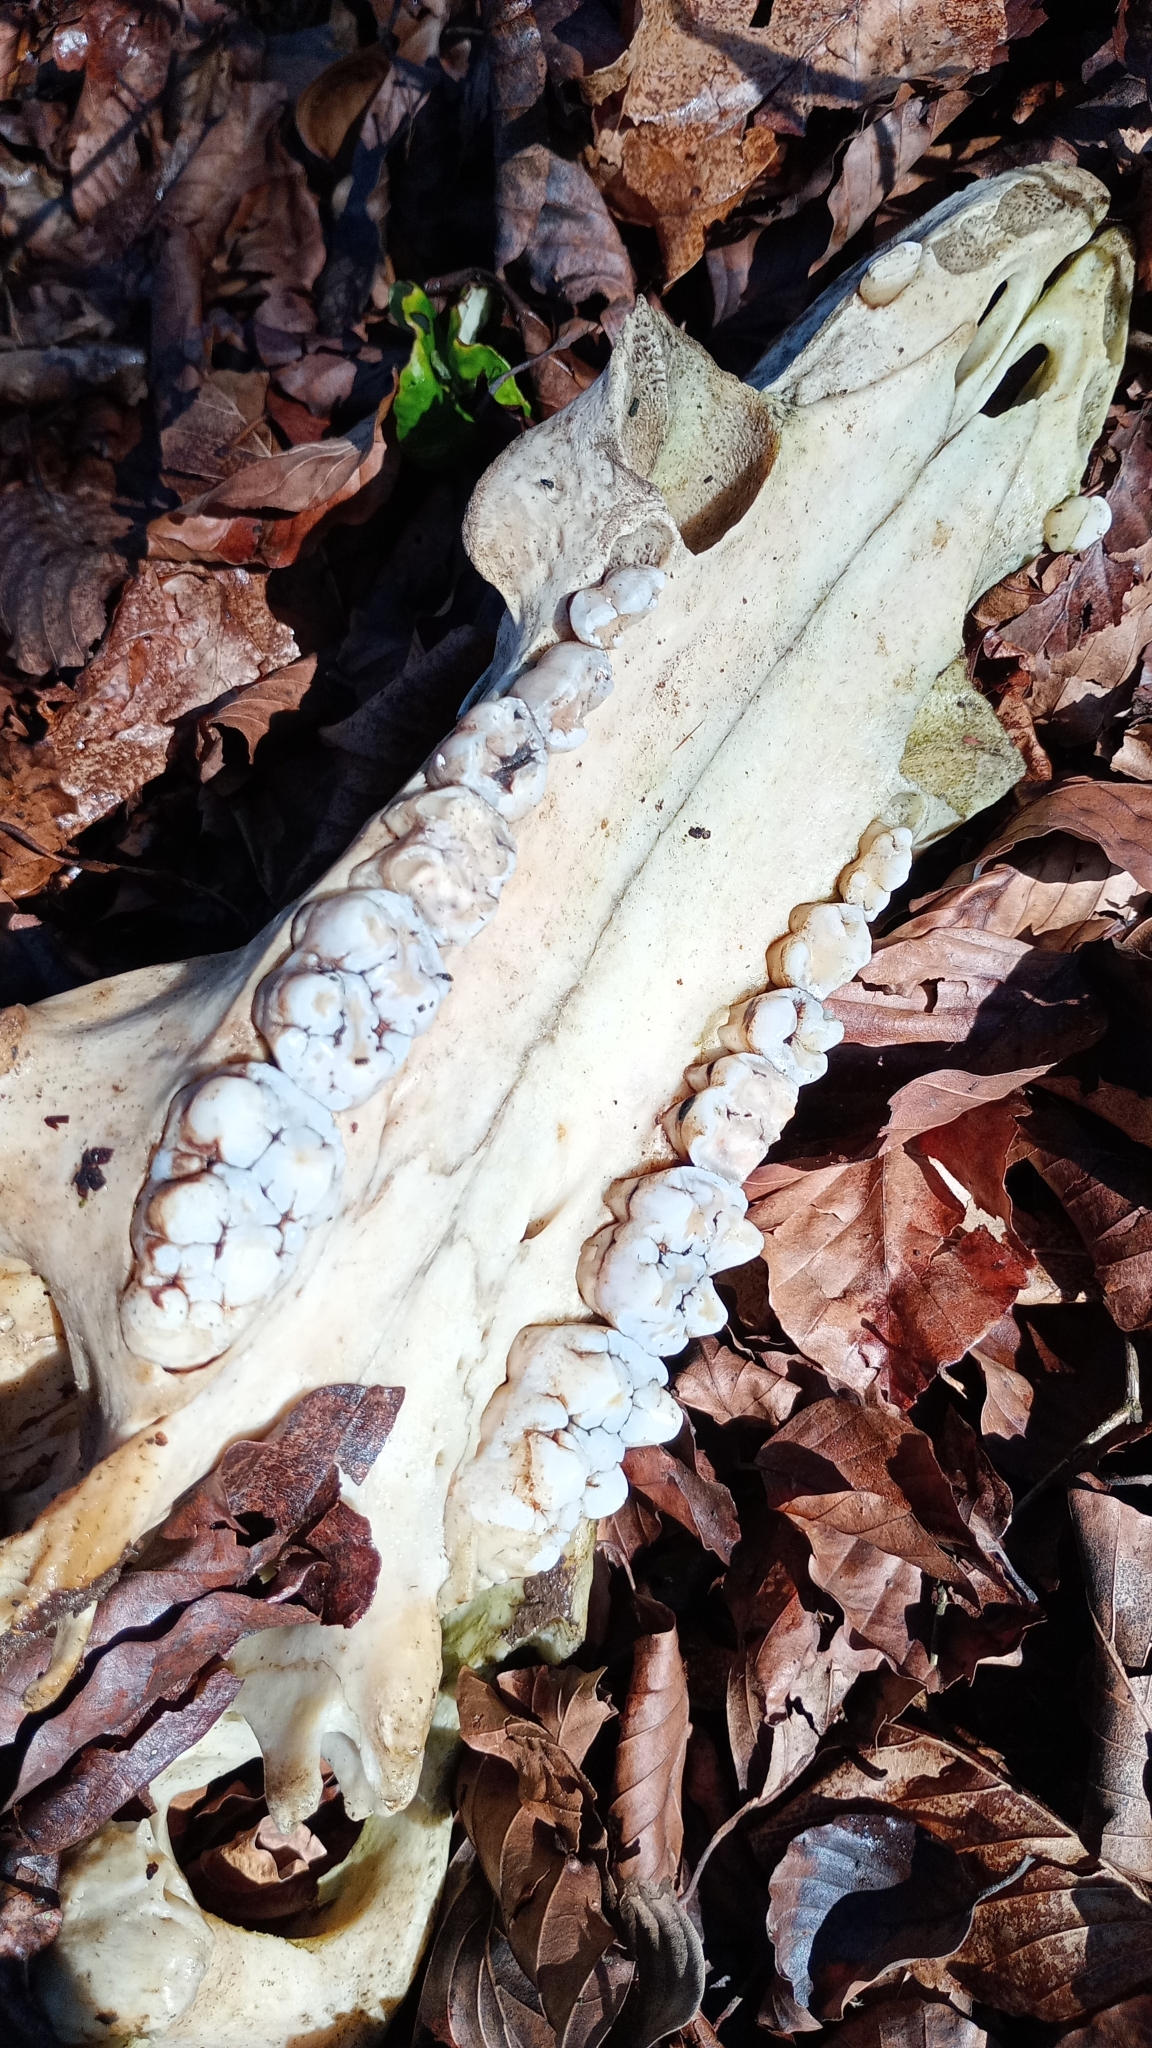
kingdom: Animalia
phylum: Chordata
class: Mammalia
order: Artiodactyla
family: Suidae
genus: Sus
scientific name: Sus scrofa
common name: Wild boar
